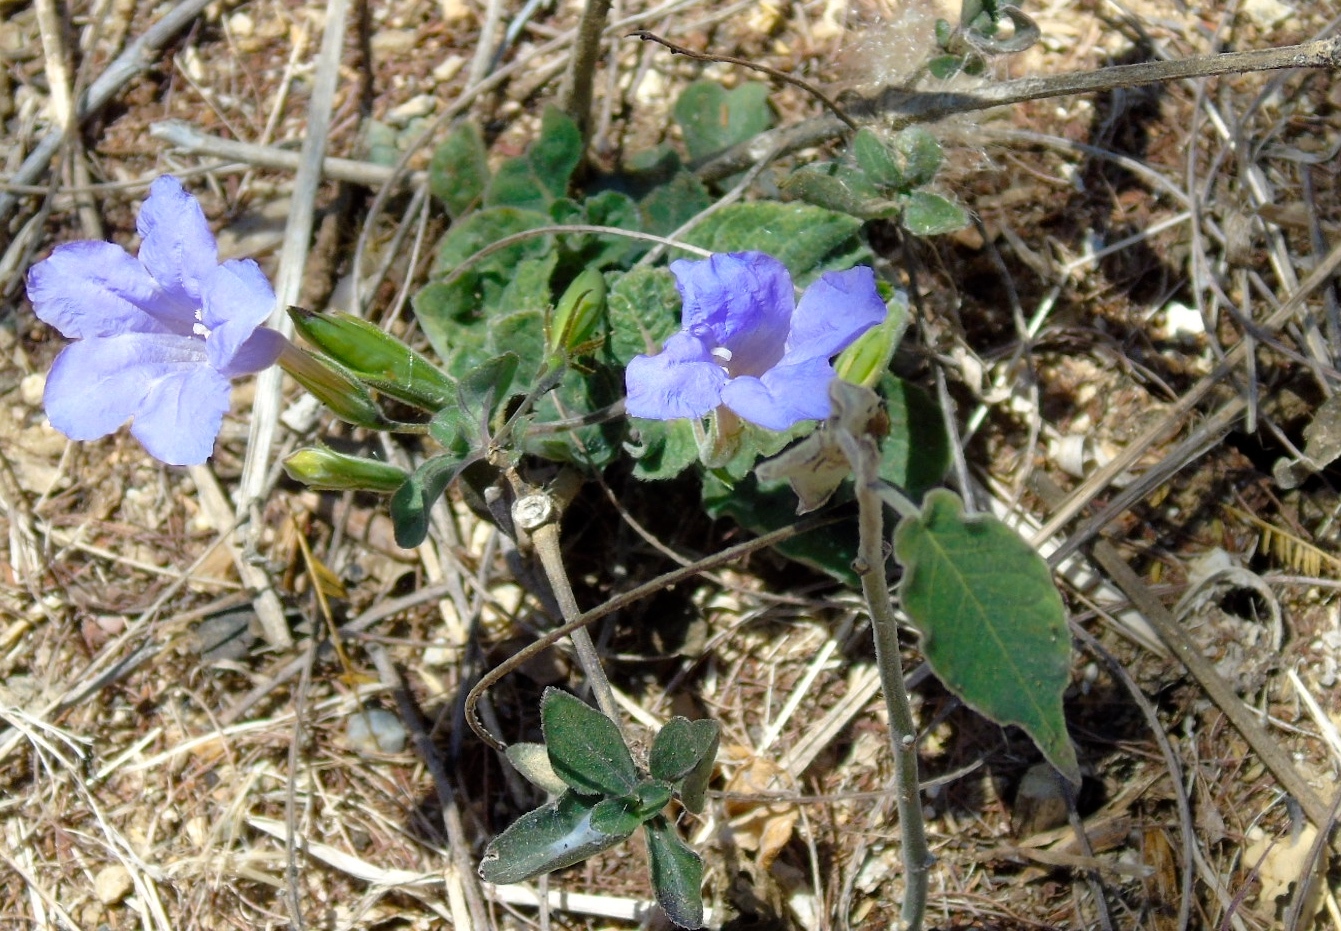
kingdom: Plantae
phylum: Tracheophyta
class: Magnoliopsida
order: Lamiales
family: Acanthaceae
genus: Ruellia
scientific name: Ruellia ciliatiflora
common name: Hairyflower wild petunia
